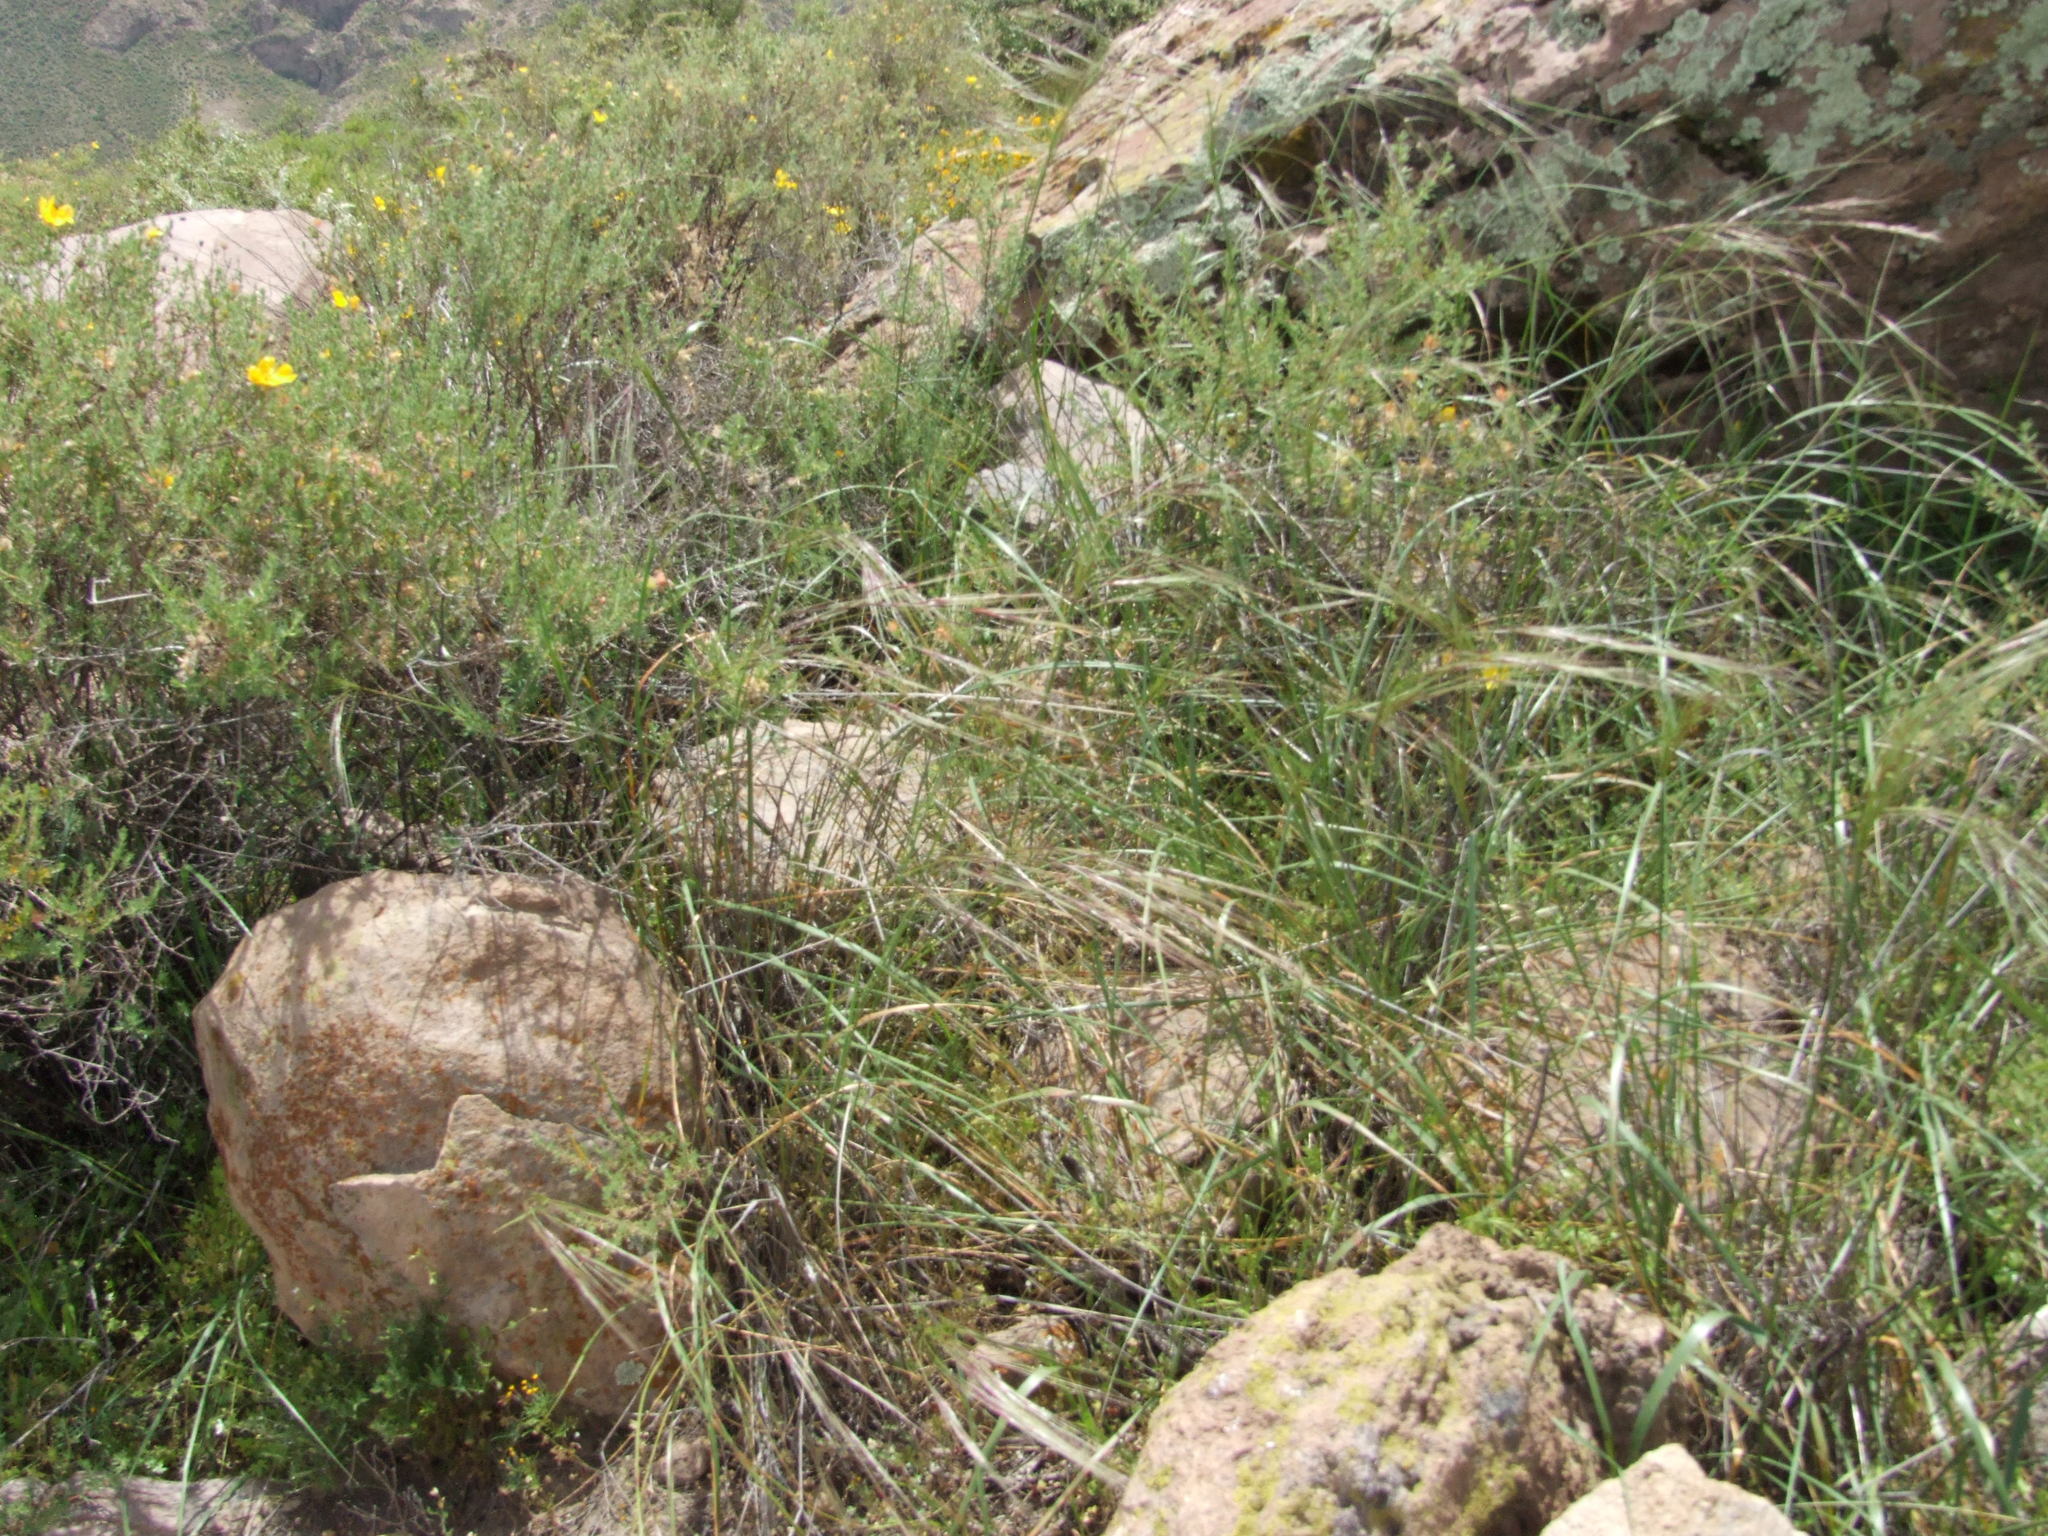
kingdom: Plantae
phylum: Tracheophyta
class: Liliopsida
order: Poales
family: Poaceae
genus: Nassella
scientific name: Nassella neesiana
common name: American needle-grass
